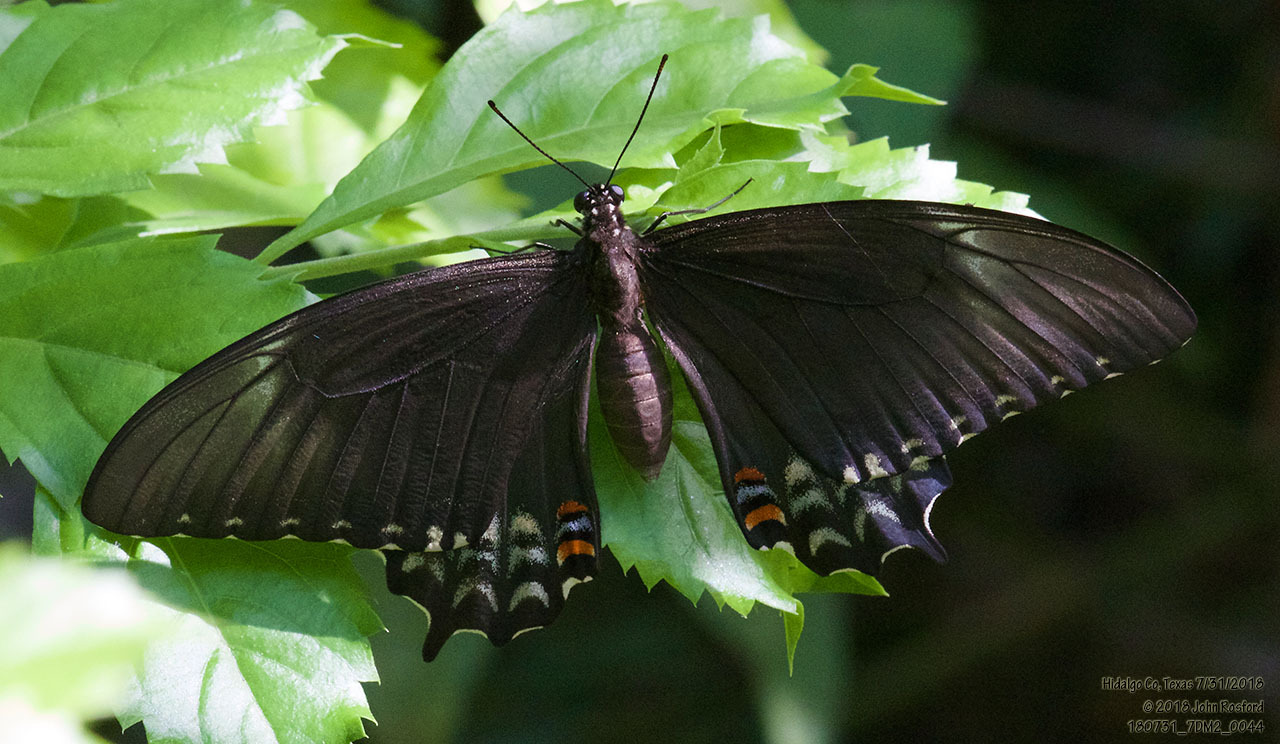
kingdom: Animalia
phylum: Arthropoda
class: Insecta
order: Lepidoptera
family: Papilionidae
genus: Heraclides
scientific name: Heraclides pallas
